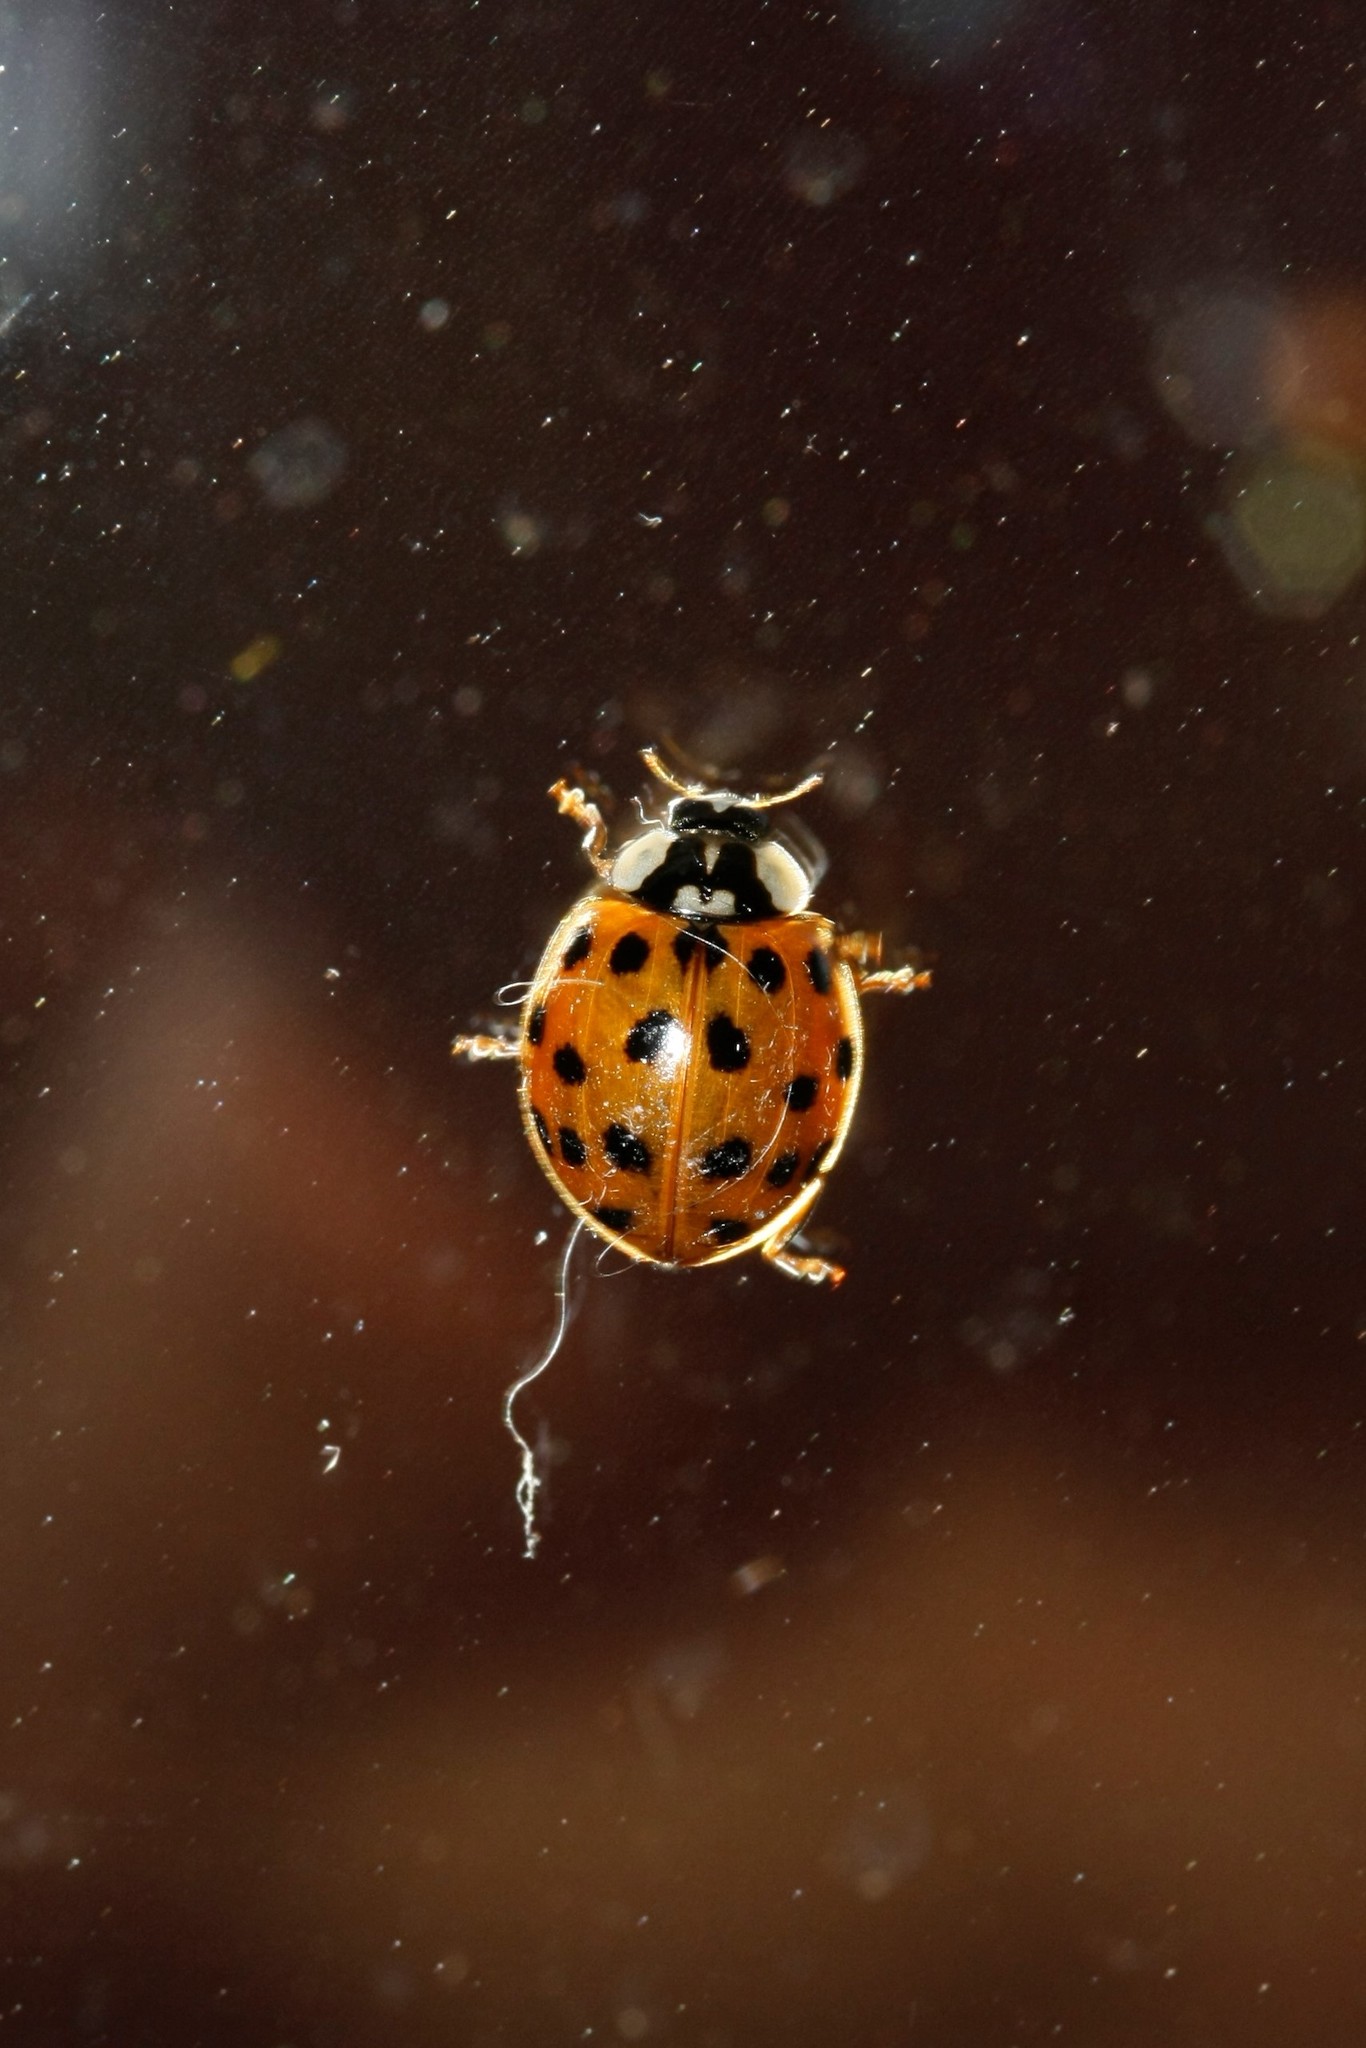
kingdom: Animalia
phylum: Arthropoda
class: Insecta
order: Coleoptera
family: Coccinellidae
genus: Harmonia
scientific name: Harmonia axyridis
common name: Harlequin ladybird
